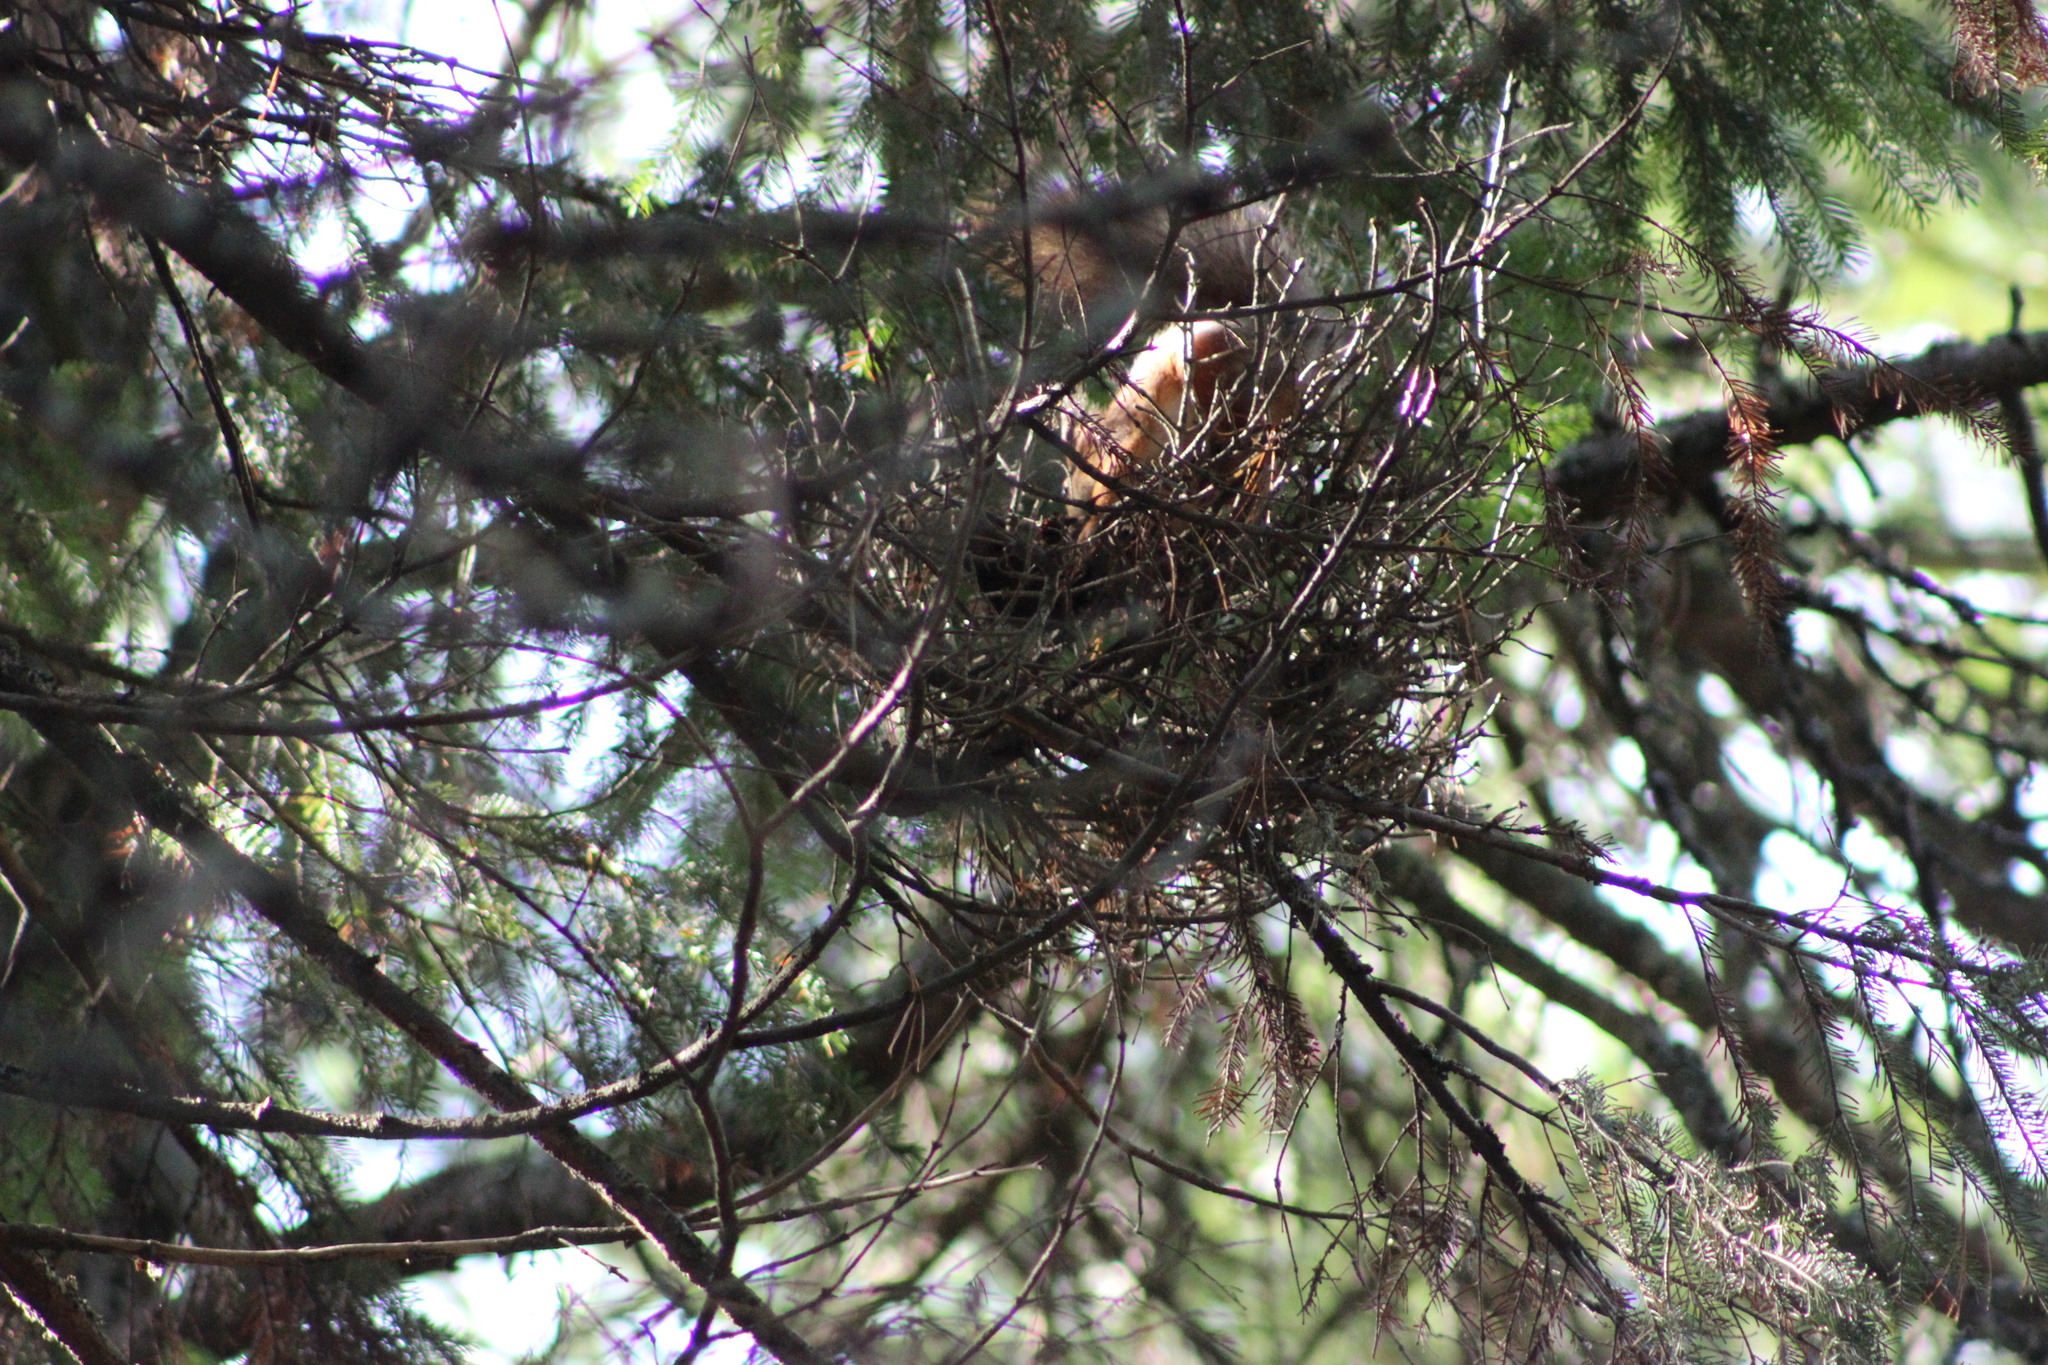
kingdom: Animalia
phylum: Chordata
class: Mammalia
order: Rodentia
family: Sciuridae
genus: Sciurus
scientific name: Sciurus vulgaris
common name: Eurasian red squirrel
